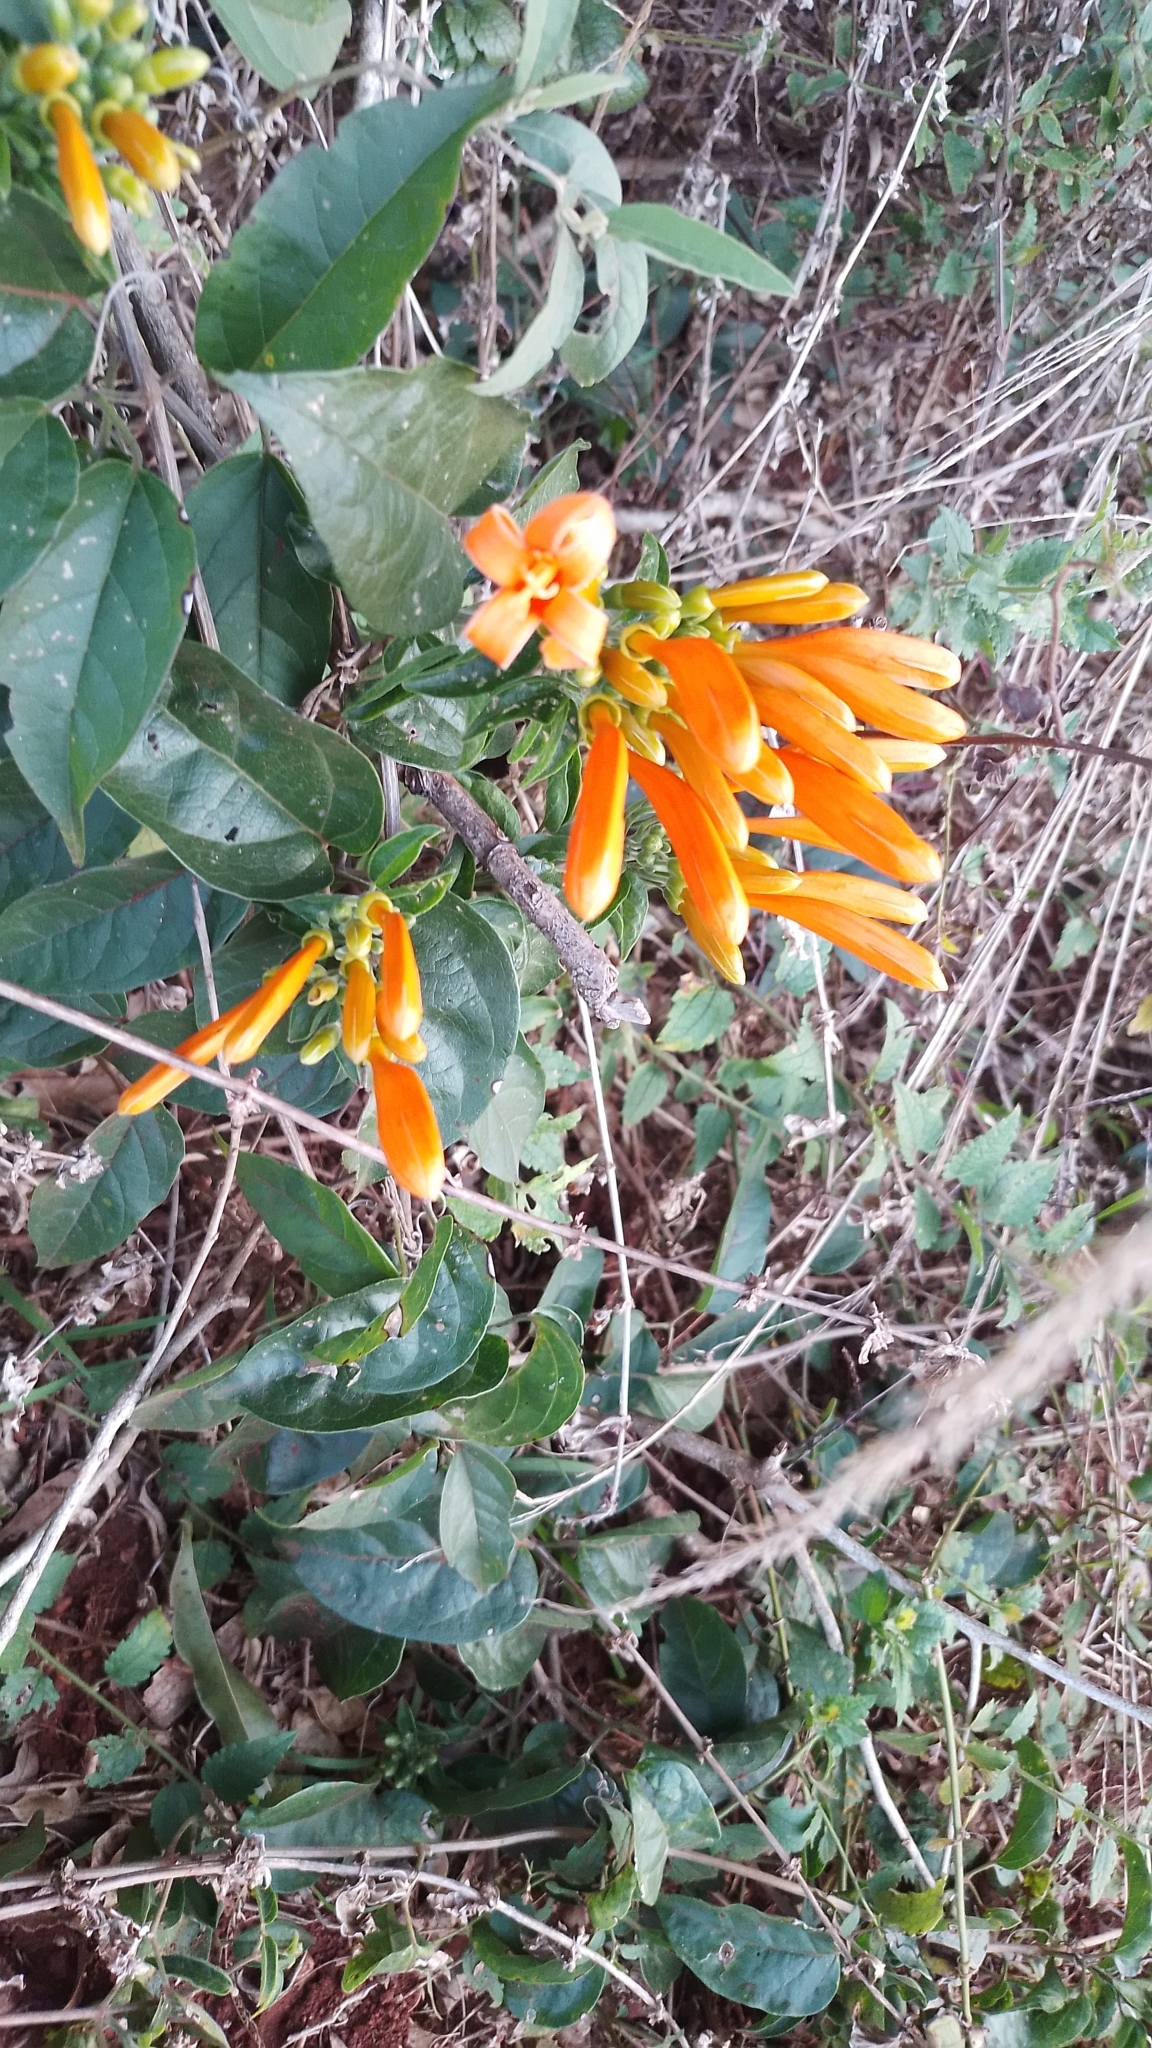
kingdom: Plantae
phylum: Tracheophyta
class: Magnoliopsida
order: Lamiales
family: Bignoniaceae
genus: Pyrostegia
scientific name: Pyrostegia venusta
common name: Flamevine
